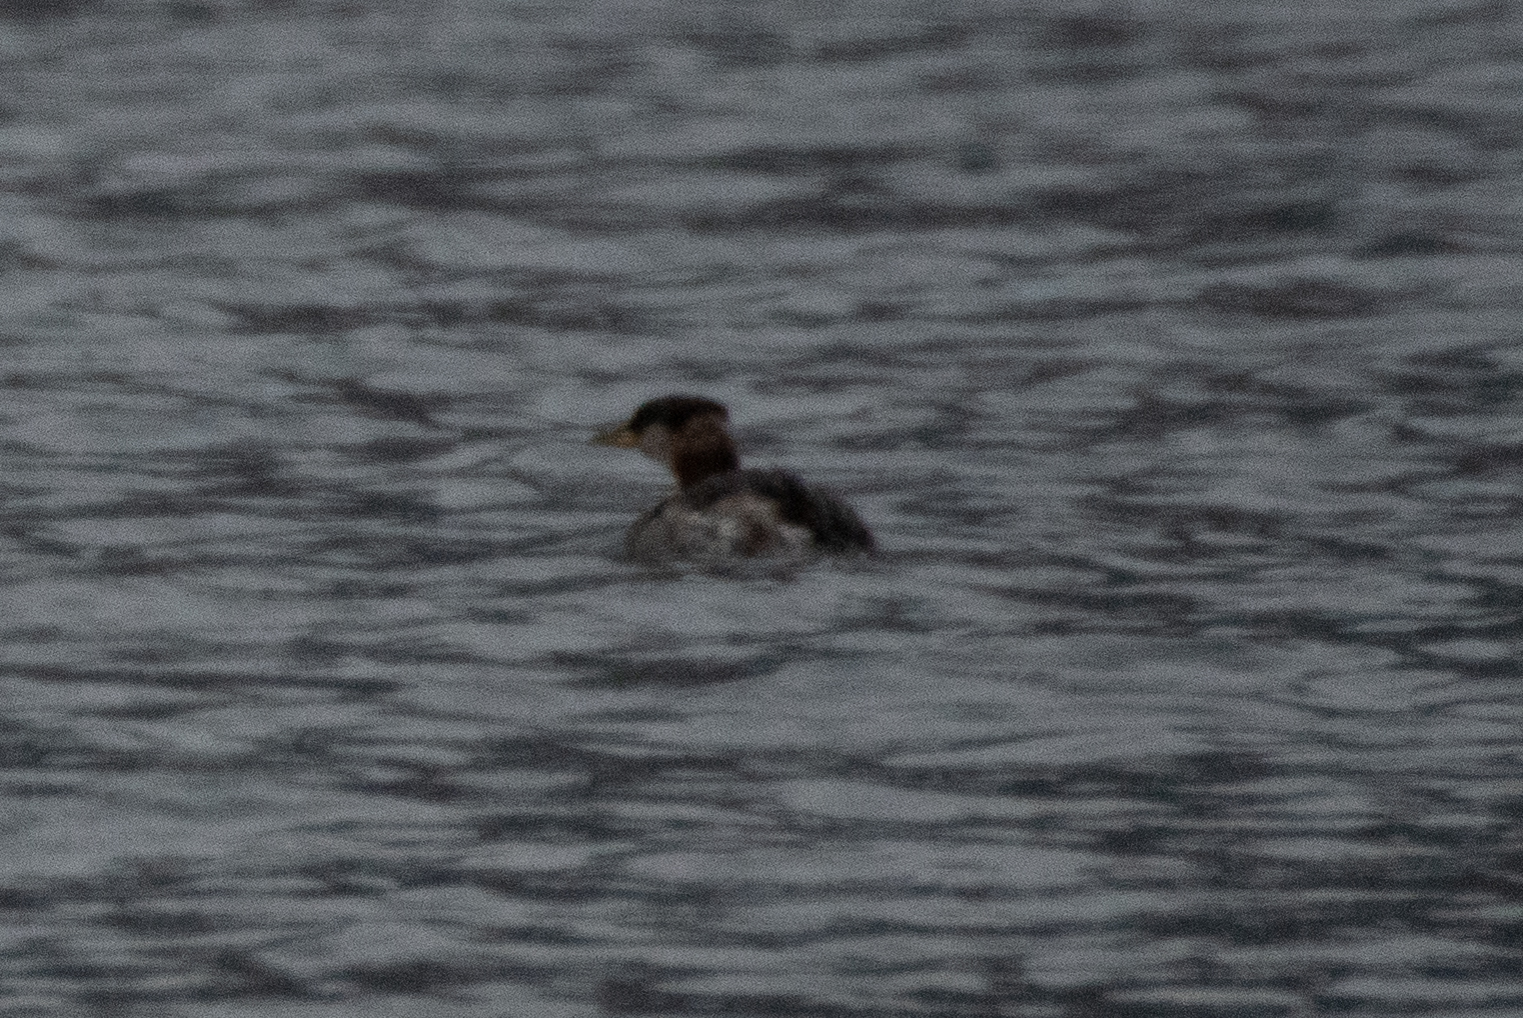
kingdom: Animalia
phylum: Chordata
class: Aves
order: Podicipediformes
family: Podicipedidae
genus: Podiceps
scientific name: Podiceps grisegena
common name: Red-necked grebe
